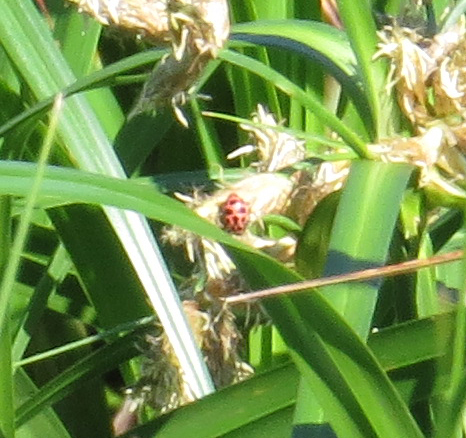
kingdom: Animalia
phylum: Arthropoda
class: Insecta
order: Coleoptera
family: Coccinellidae
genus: Coleomegilla
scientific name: Coleomegilla maculata
